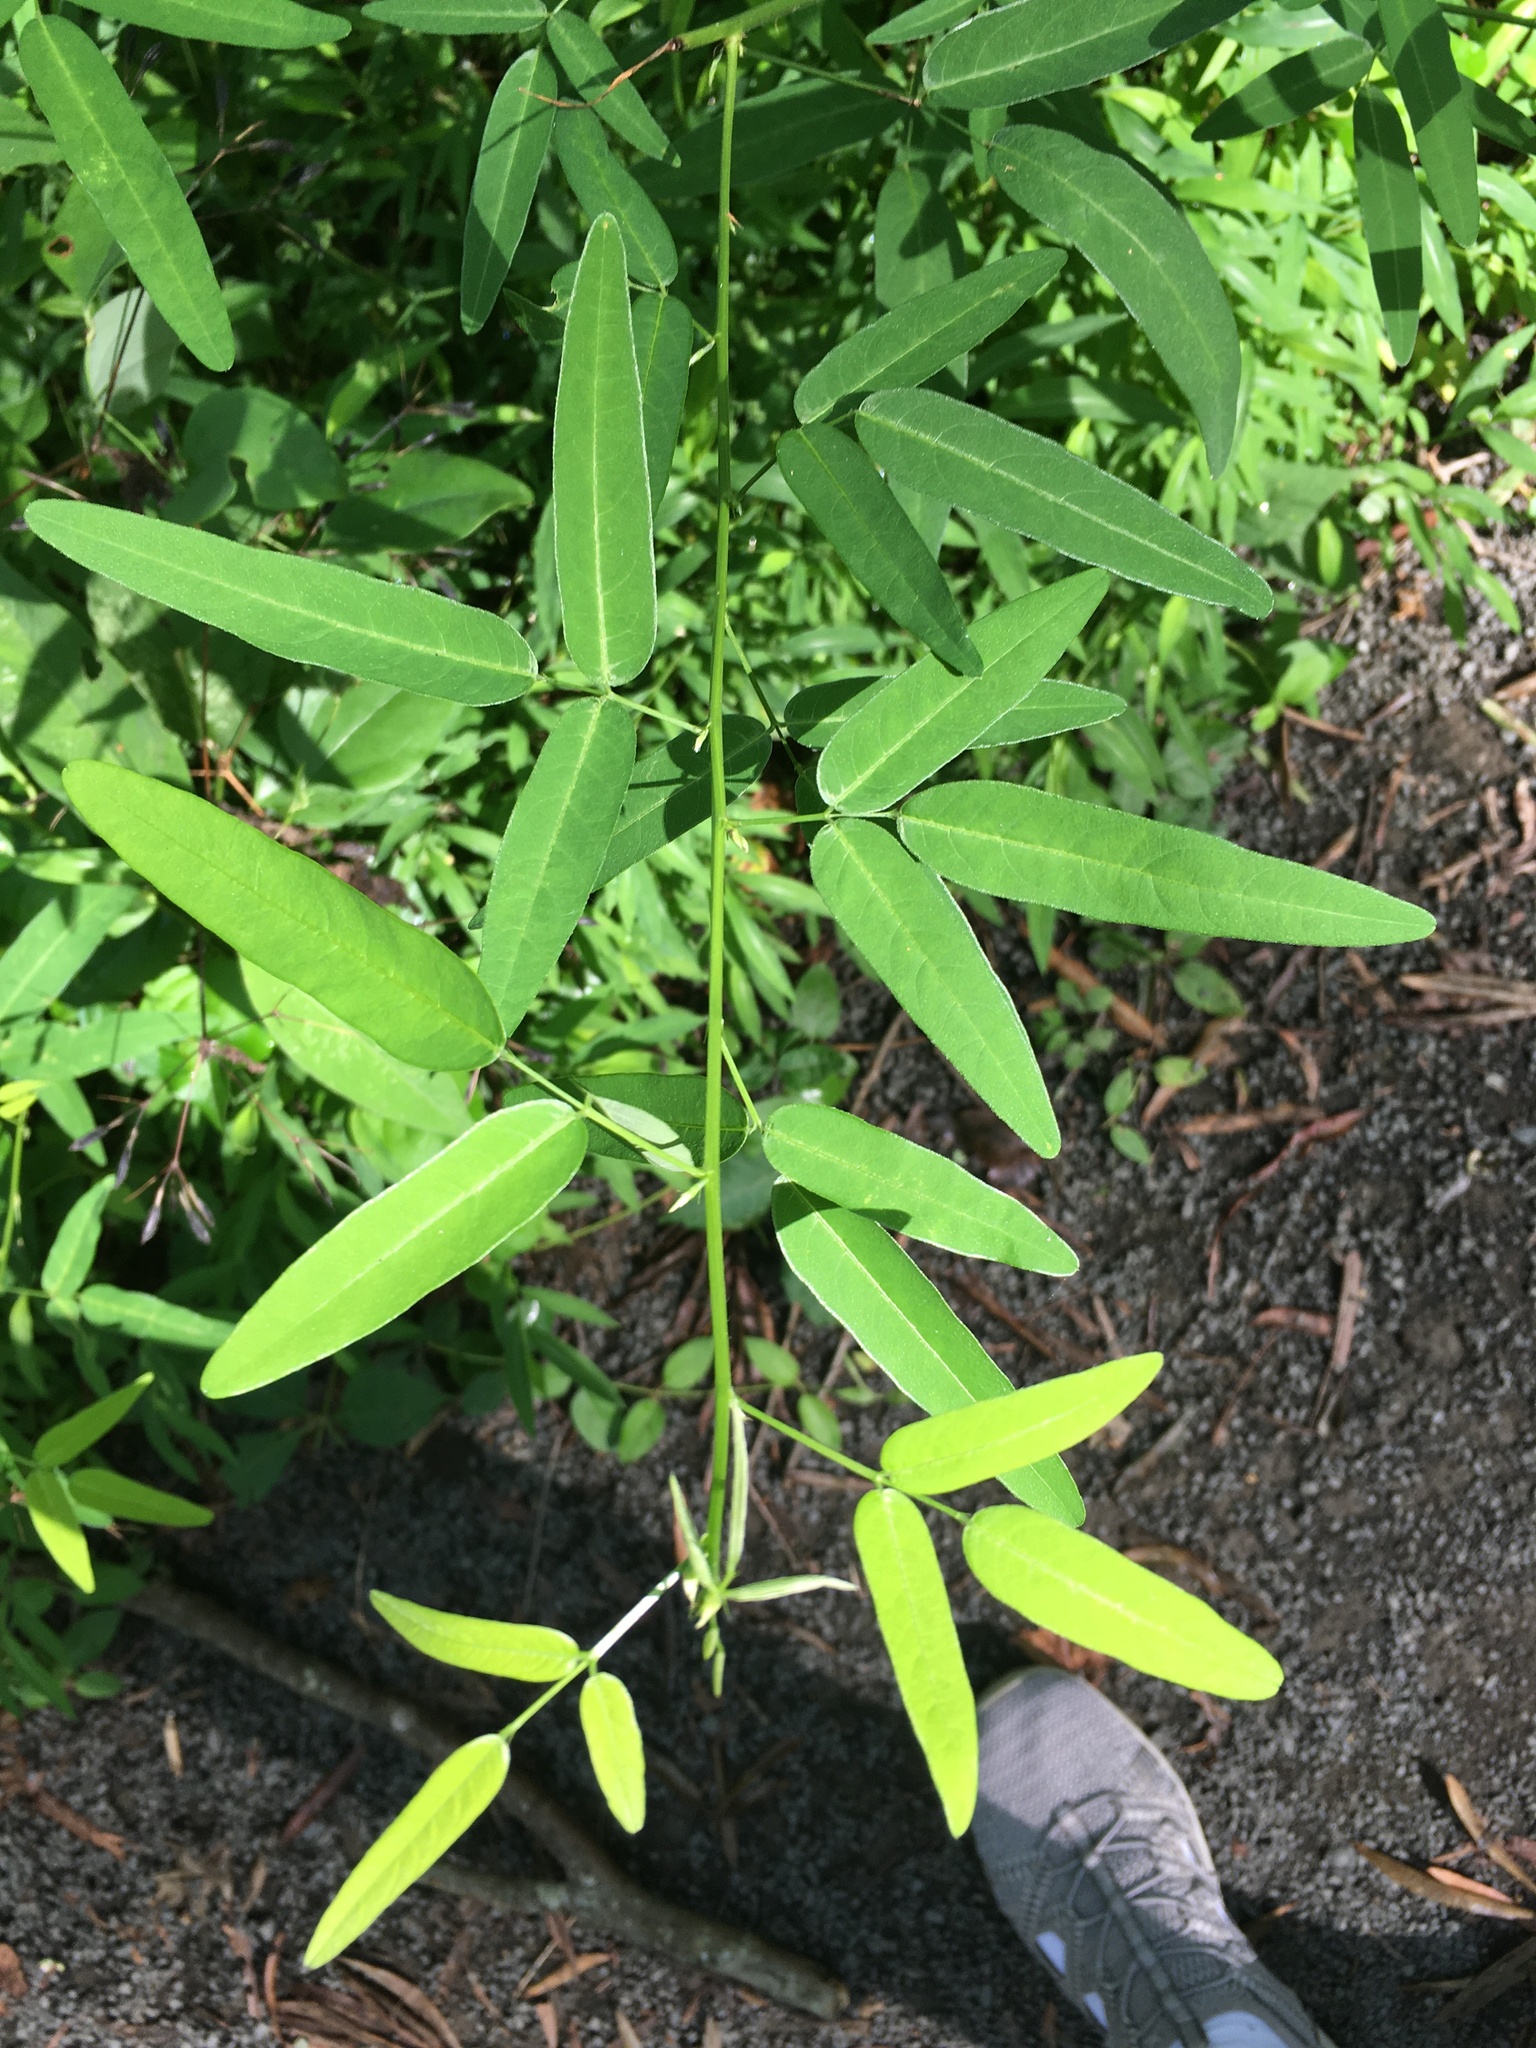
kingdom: Plantae
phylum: Tracheophyta
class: Magnoliopsida
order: Fabales
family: Fabaceae
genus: Desmodium
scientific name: Desmodium paniculatum
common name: Panicled tick-clover
